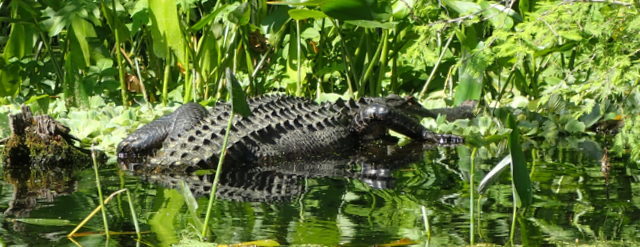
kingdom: Animalia
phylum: Chordata
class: Crocodylia
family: Alligatoridae
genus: Alligator
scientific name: Alligator mississippiensis
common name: American alligator
